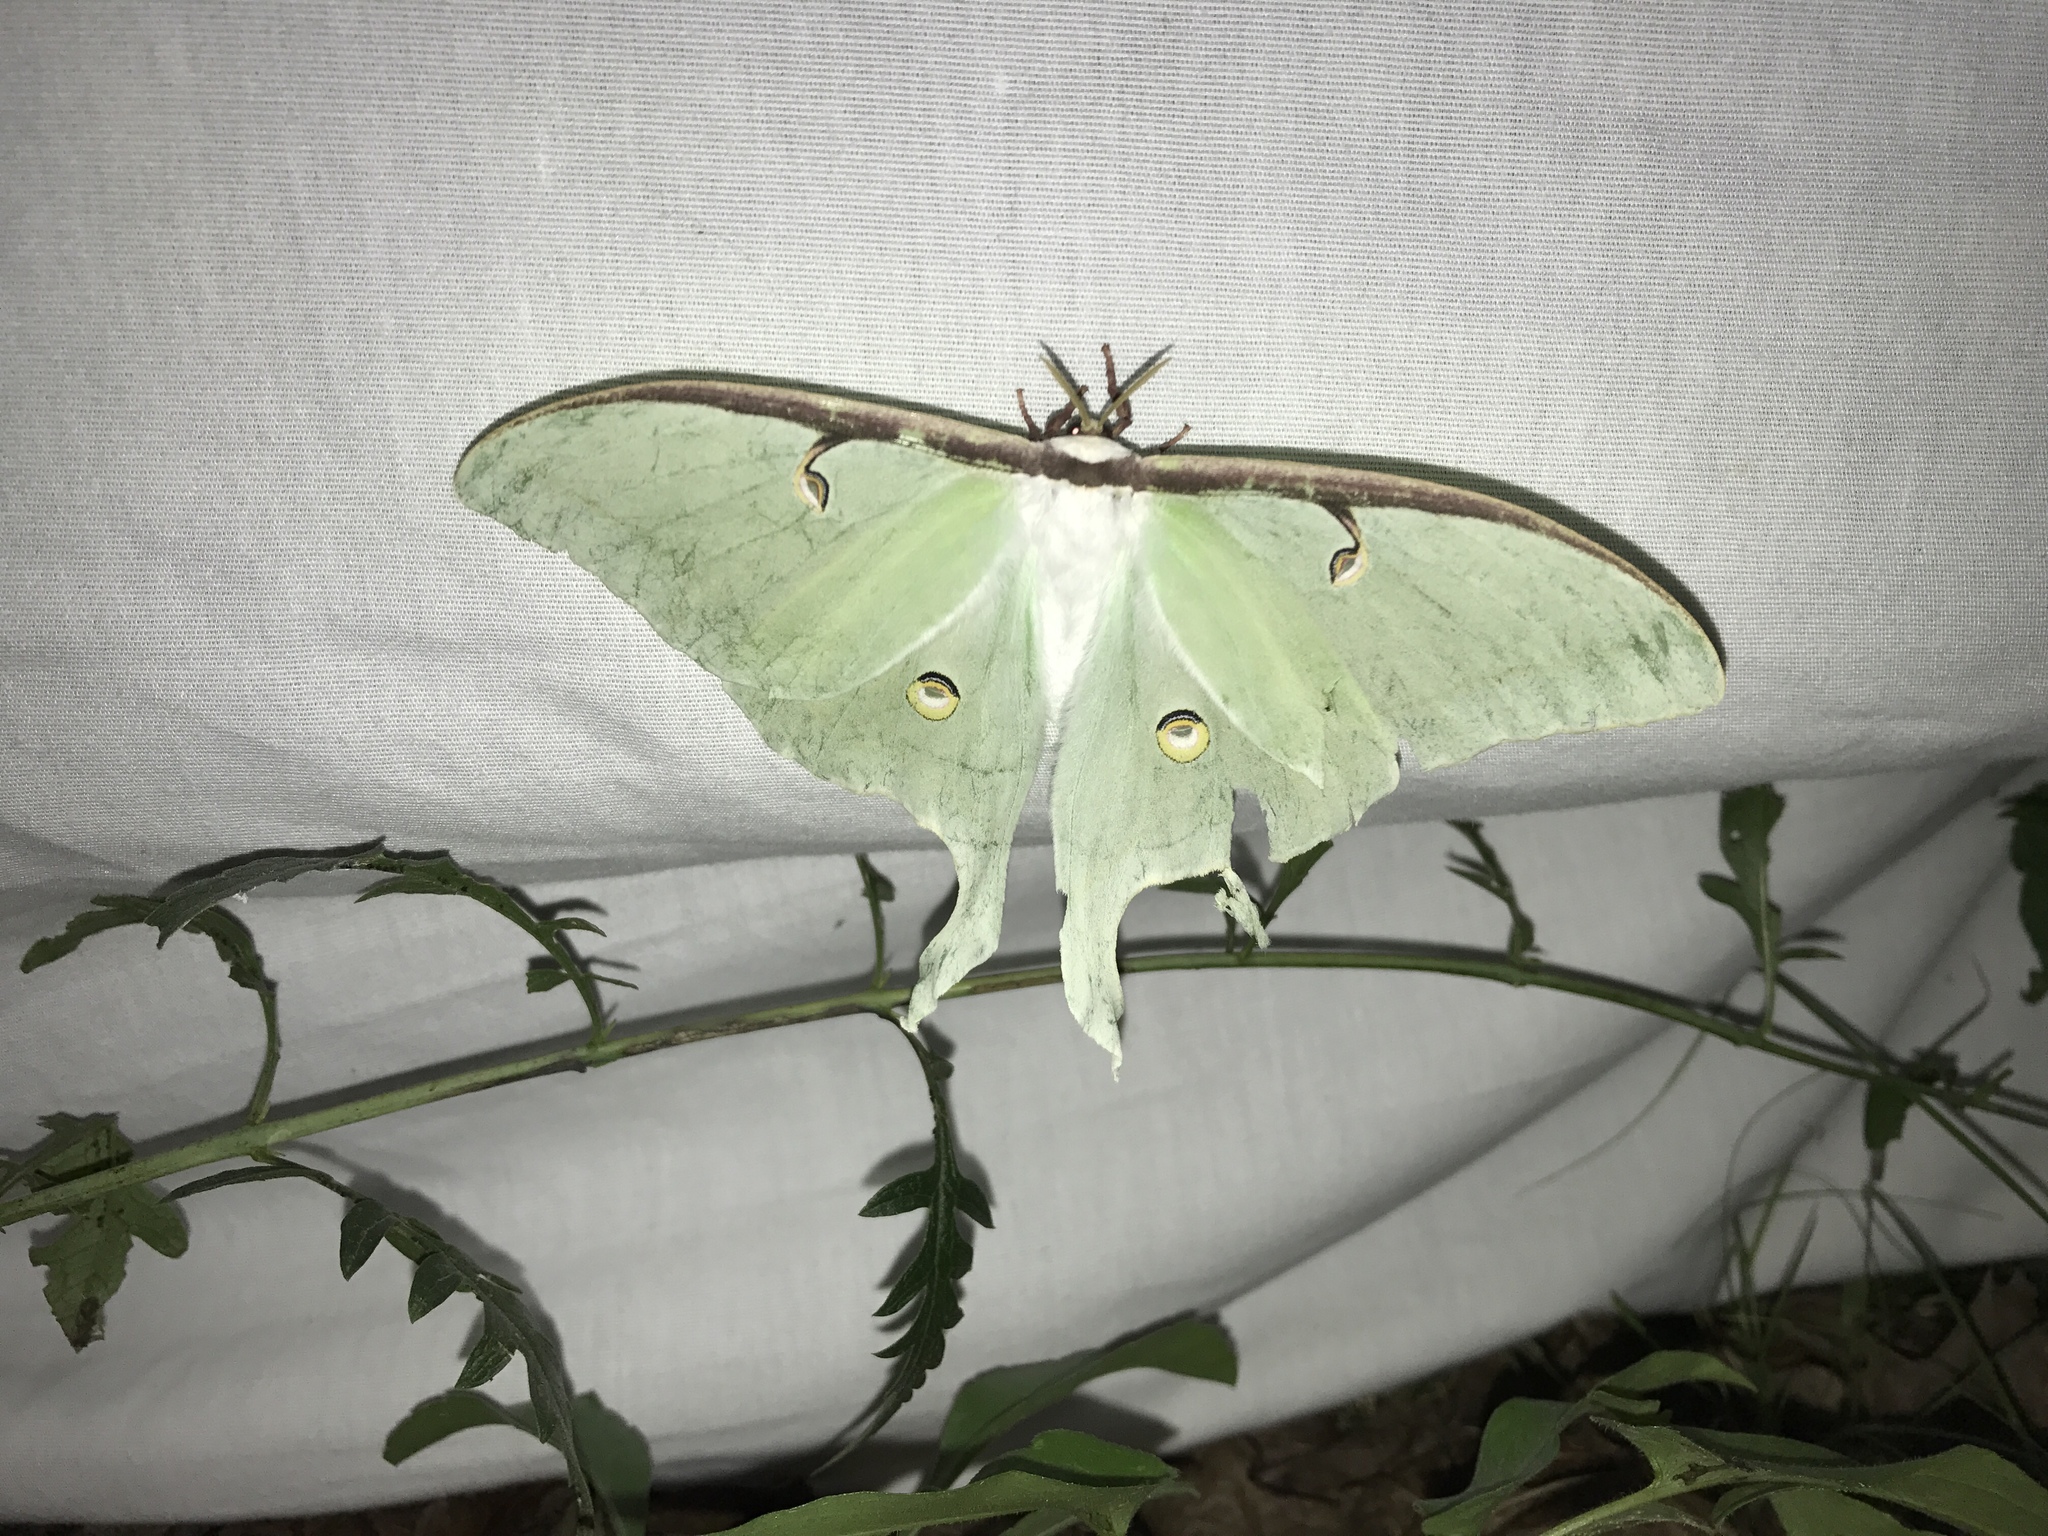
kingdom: Animalia
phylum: Arthropoda
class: Insecta
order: Lepidoptera
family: Saturniidae
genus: Actias
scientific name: Actias luna
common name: Luna moth
